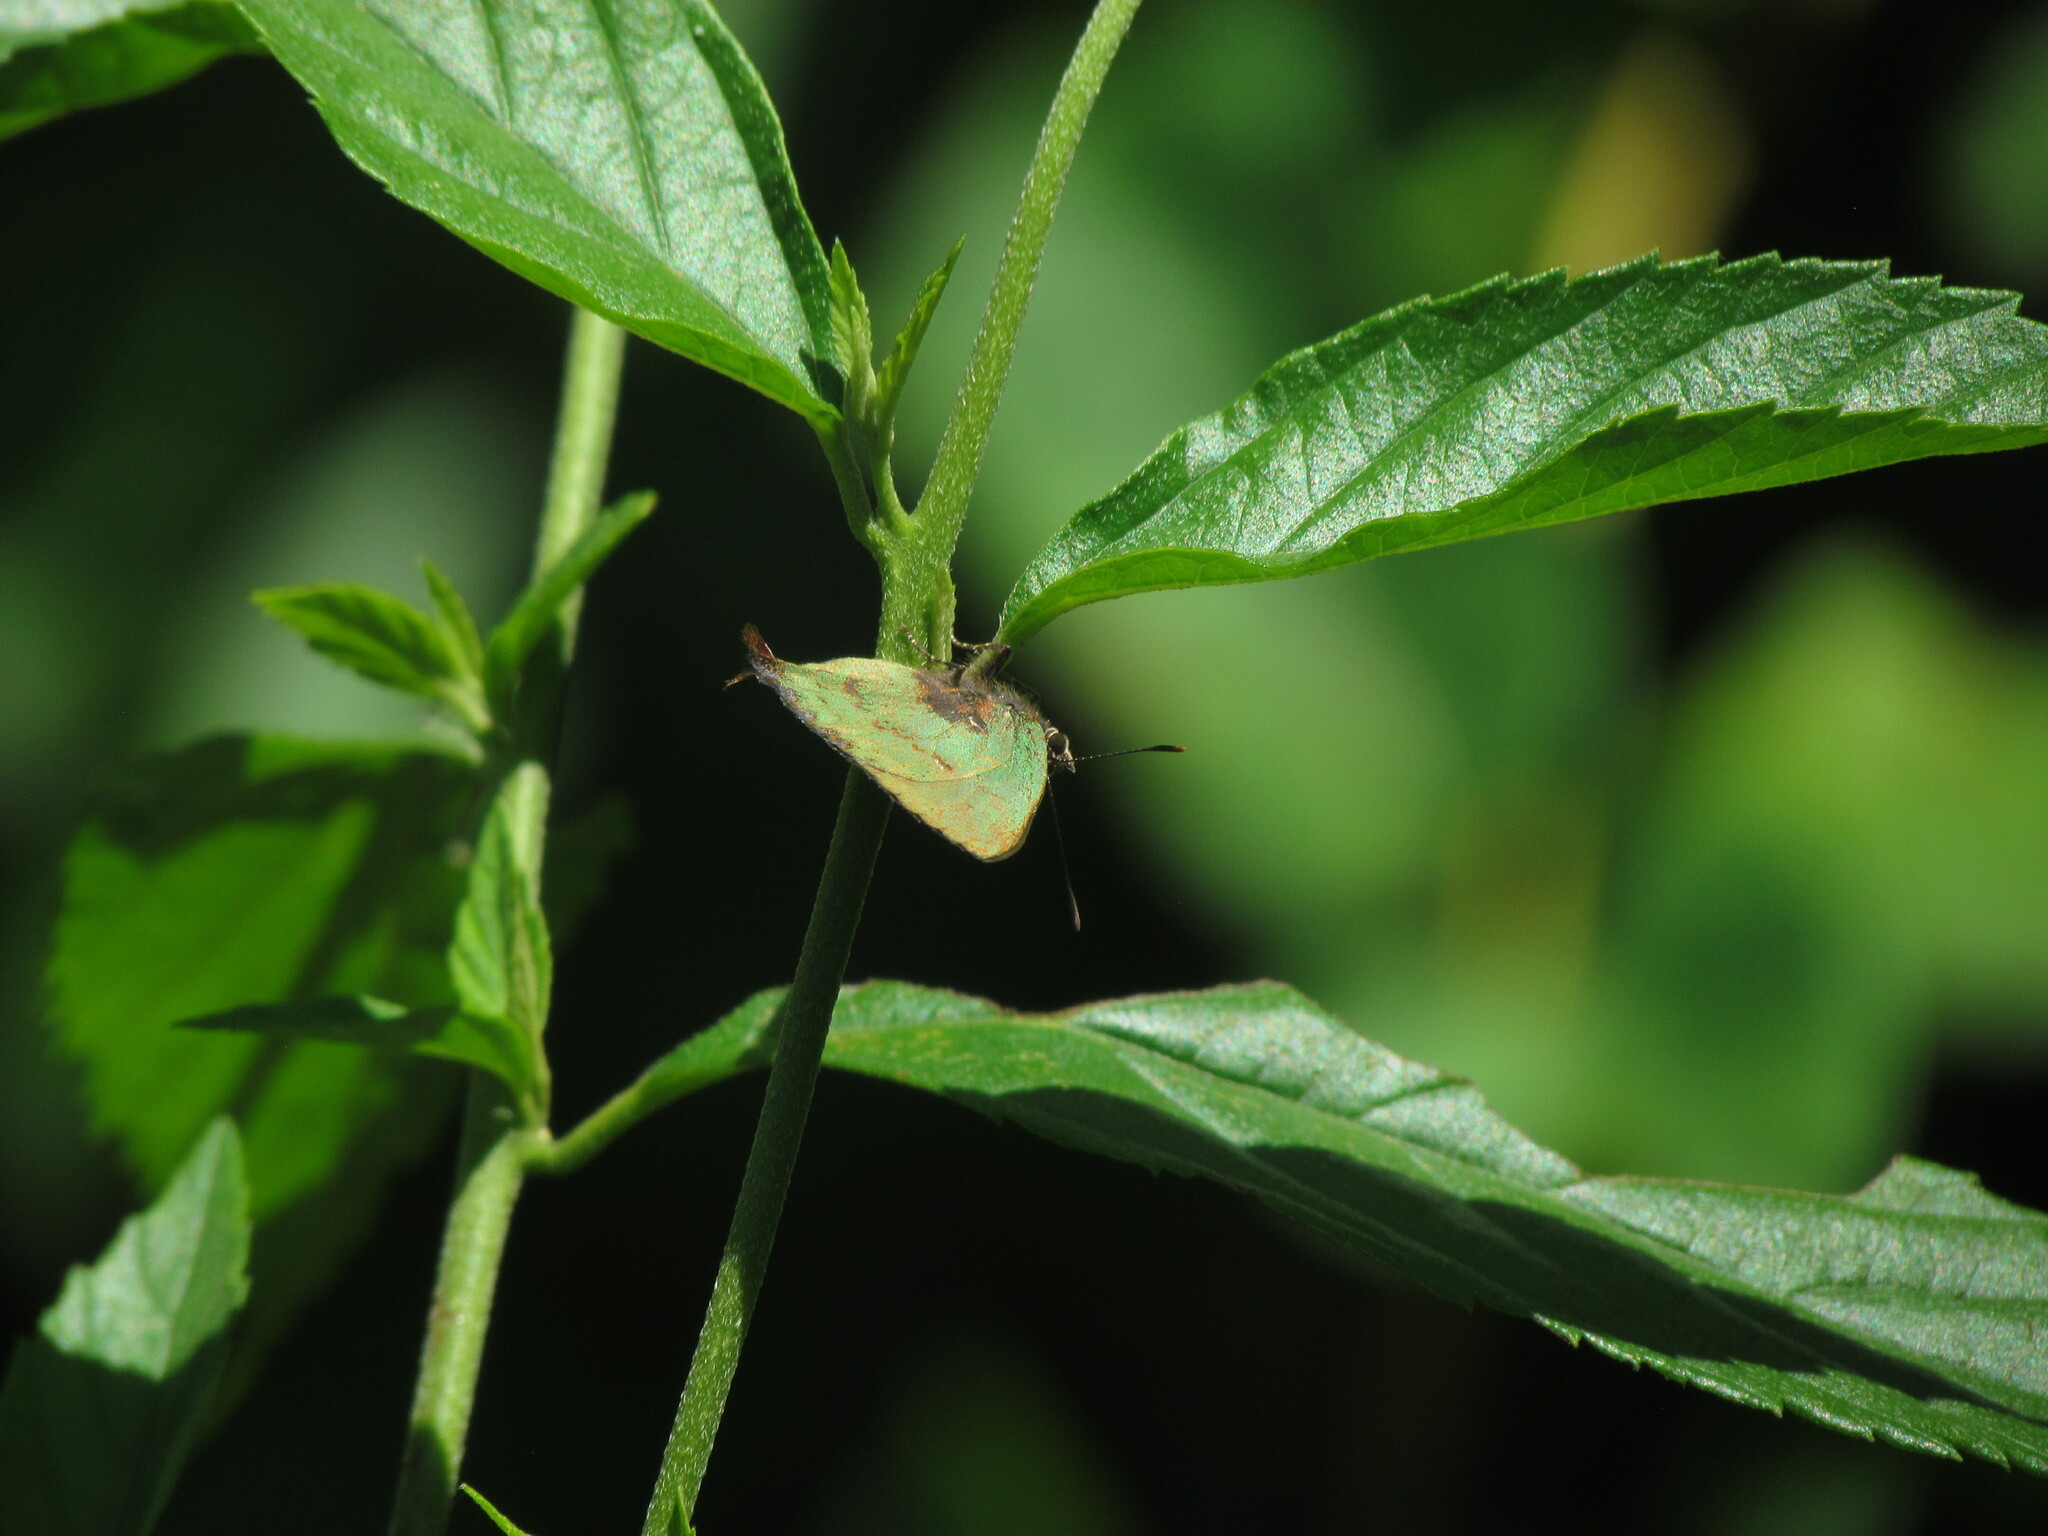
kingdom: Animalia
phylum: Arthropoda
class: Insecta
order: Lepidoptera
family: Lycaenidae
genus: Cyanophrys
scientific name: Cyanophrys
